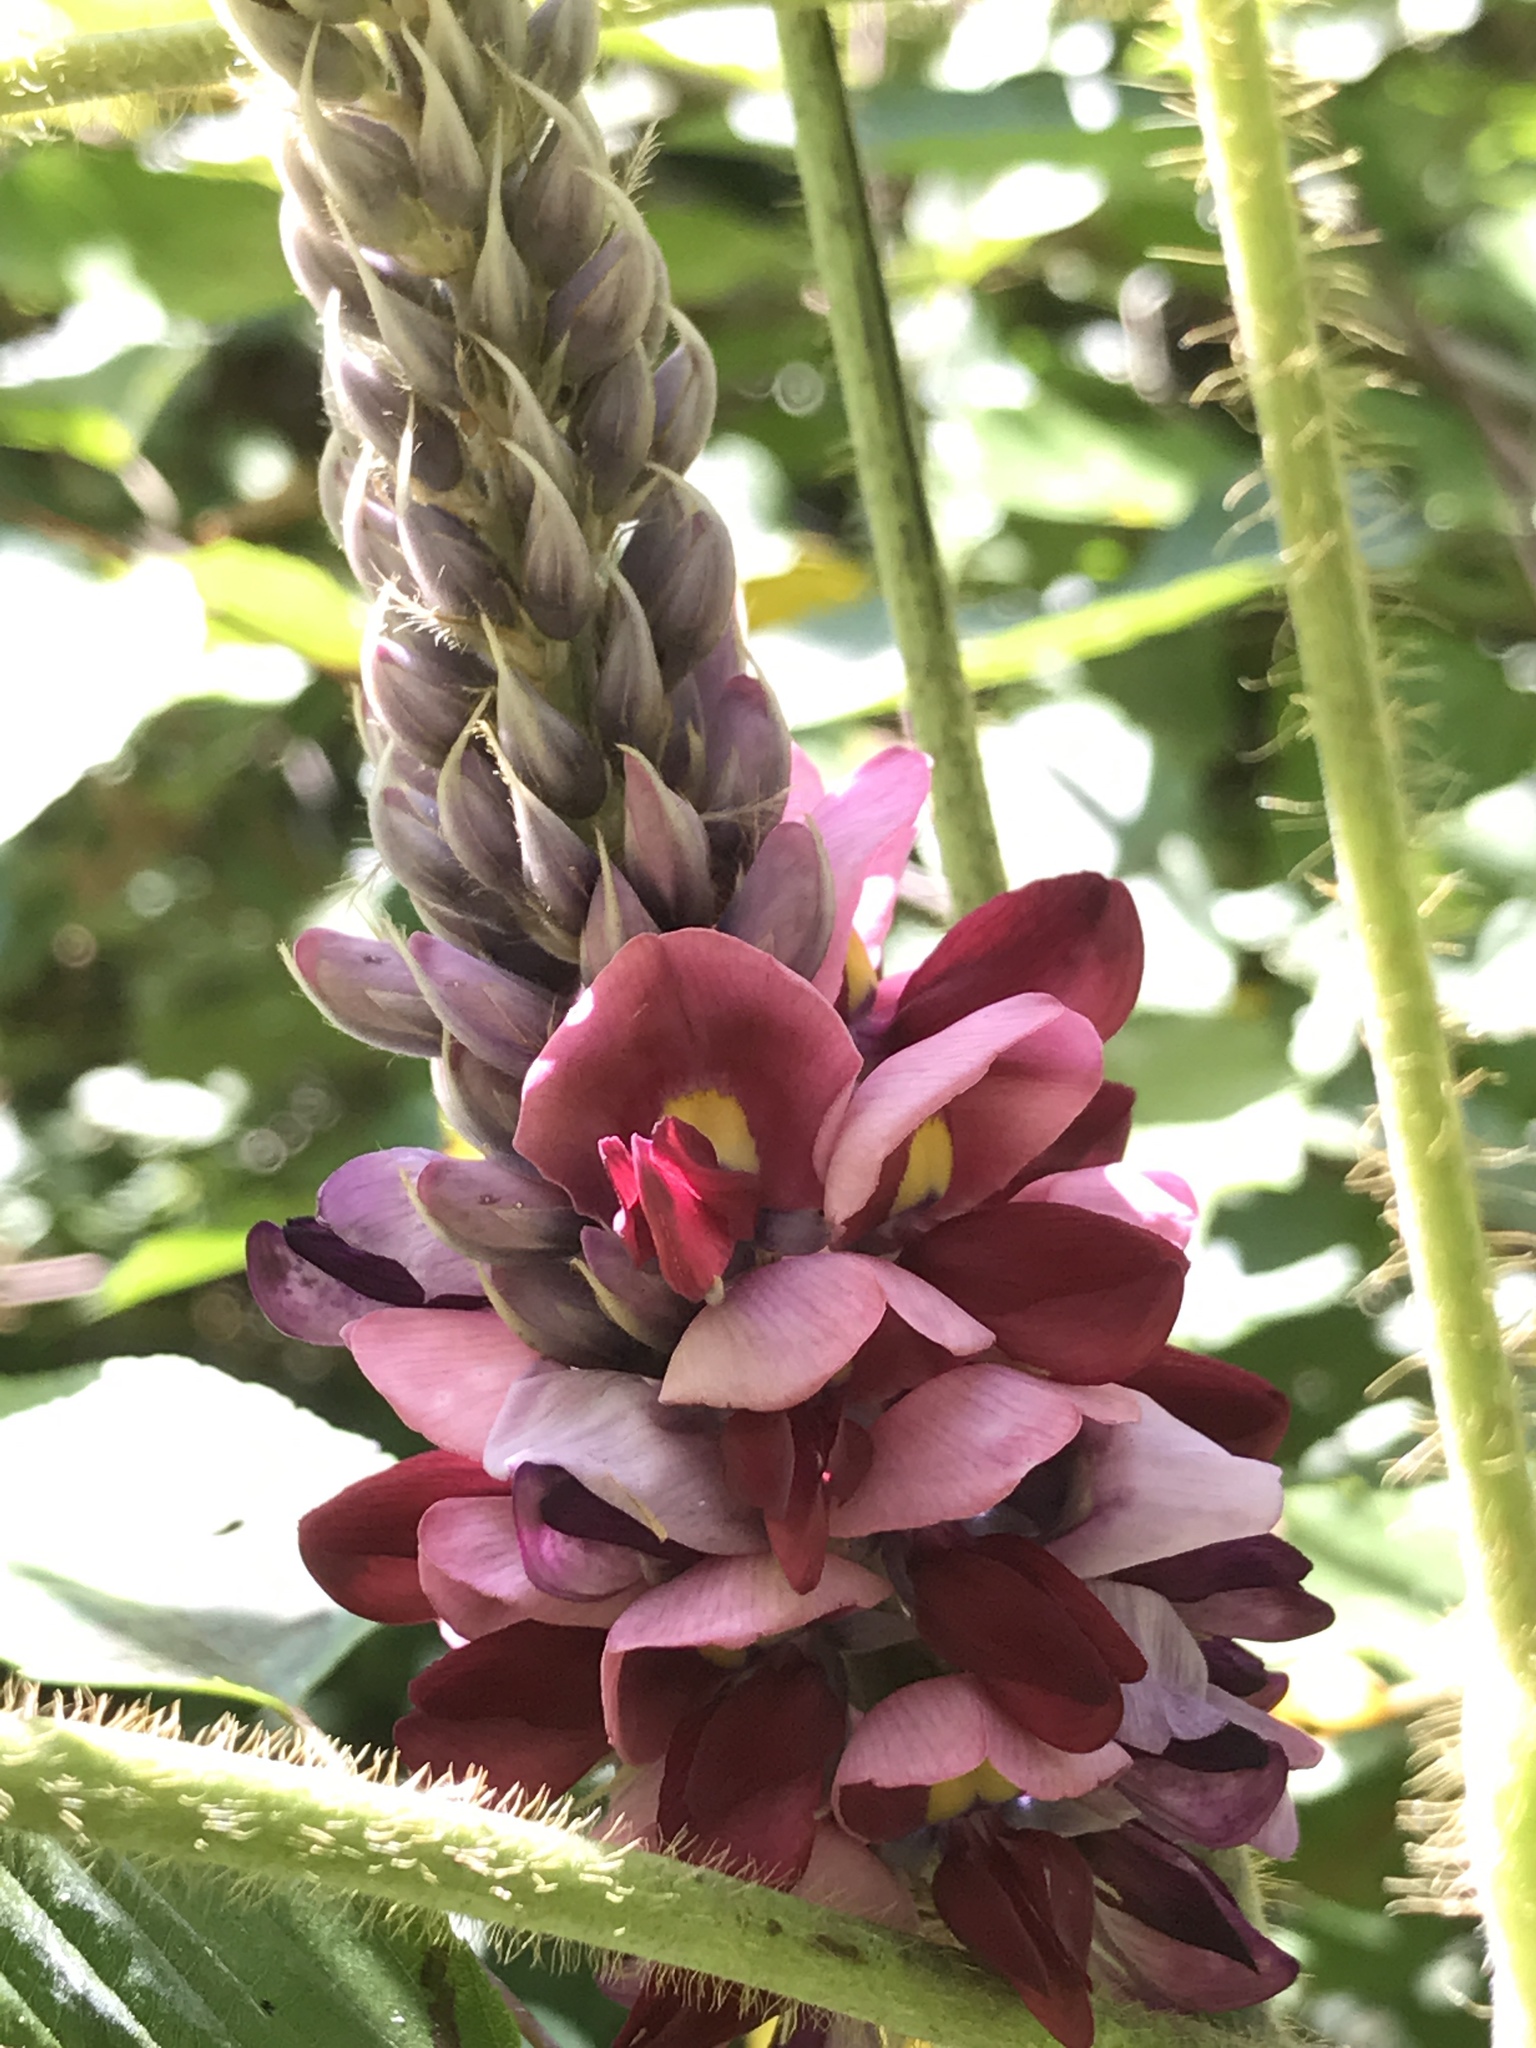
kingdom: Plantae
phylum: Tracheophyta
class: Magnoliopsida
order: Fabales
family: Fabaceae
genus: Pueraria
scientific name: Pueraria montana
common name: Kudzu
